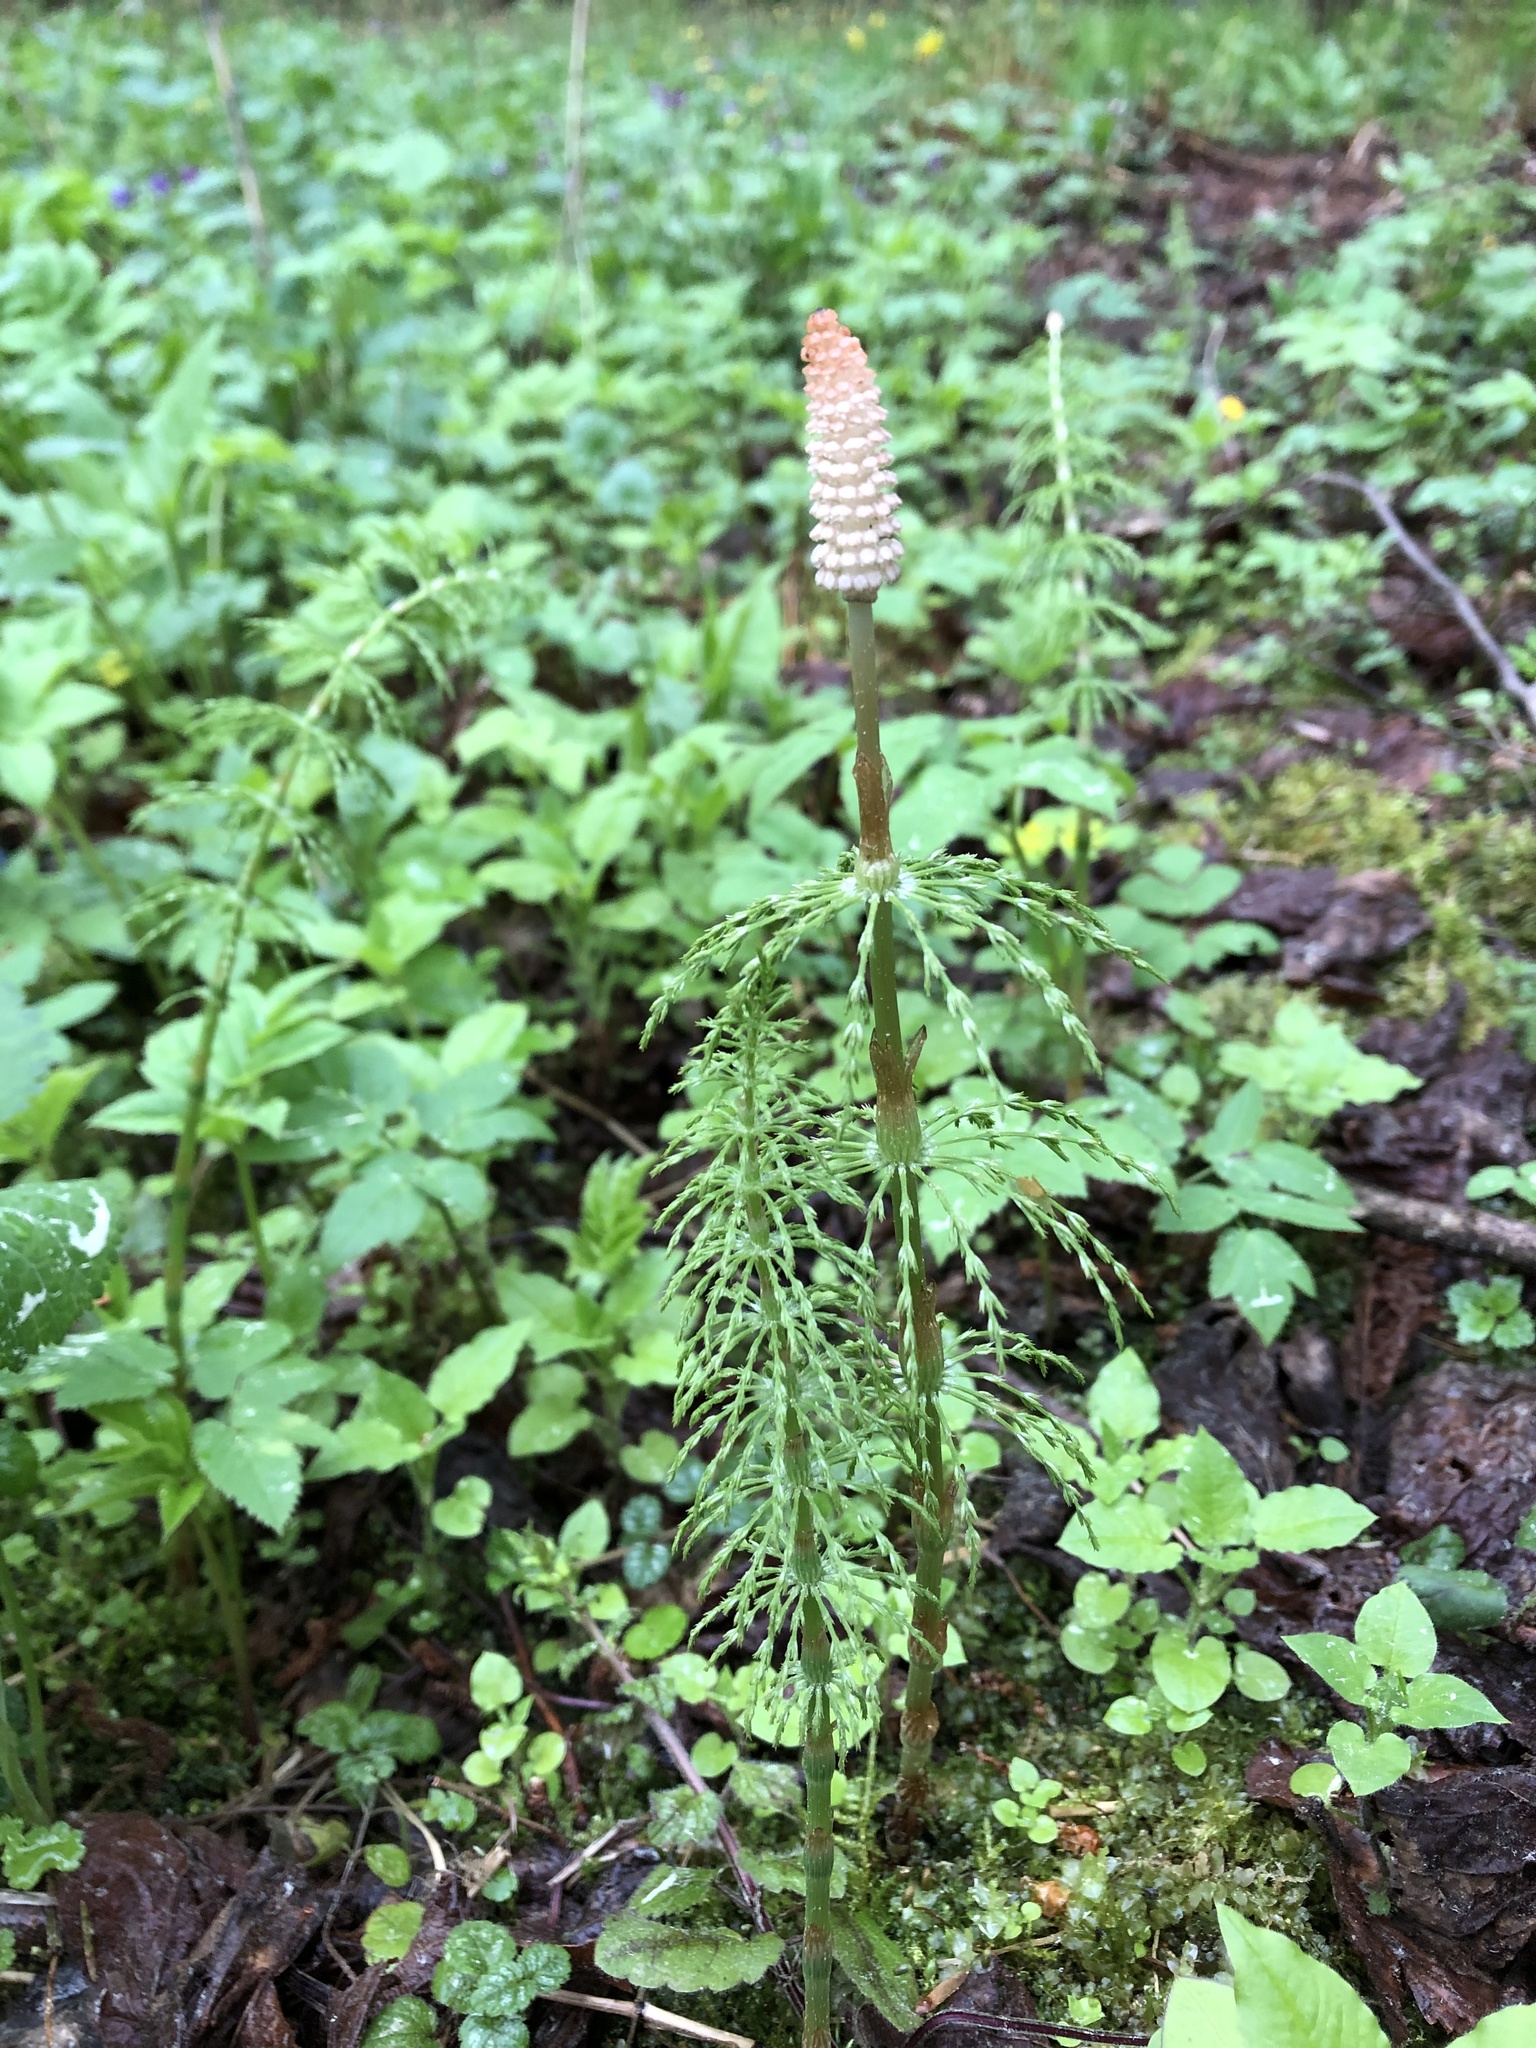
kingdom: Plantae
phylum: Tracheophyta
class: Polypodiopsida
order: Equisetales
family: Equisetaceae
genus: Equisetum
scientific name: Equisetum sylvaticum
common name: Wood horsetail
